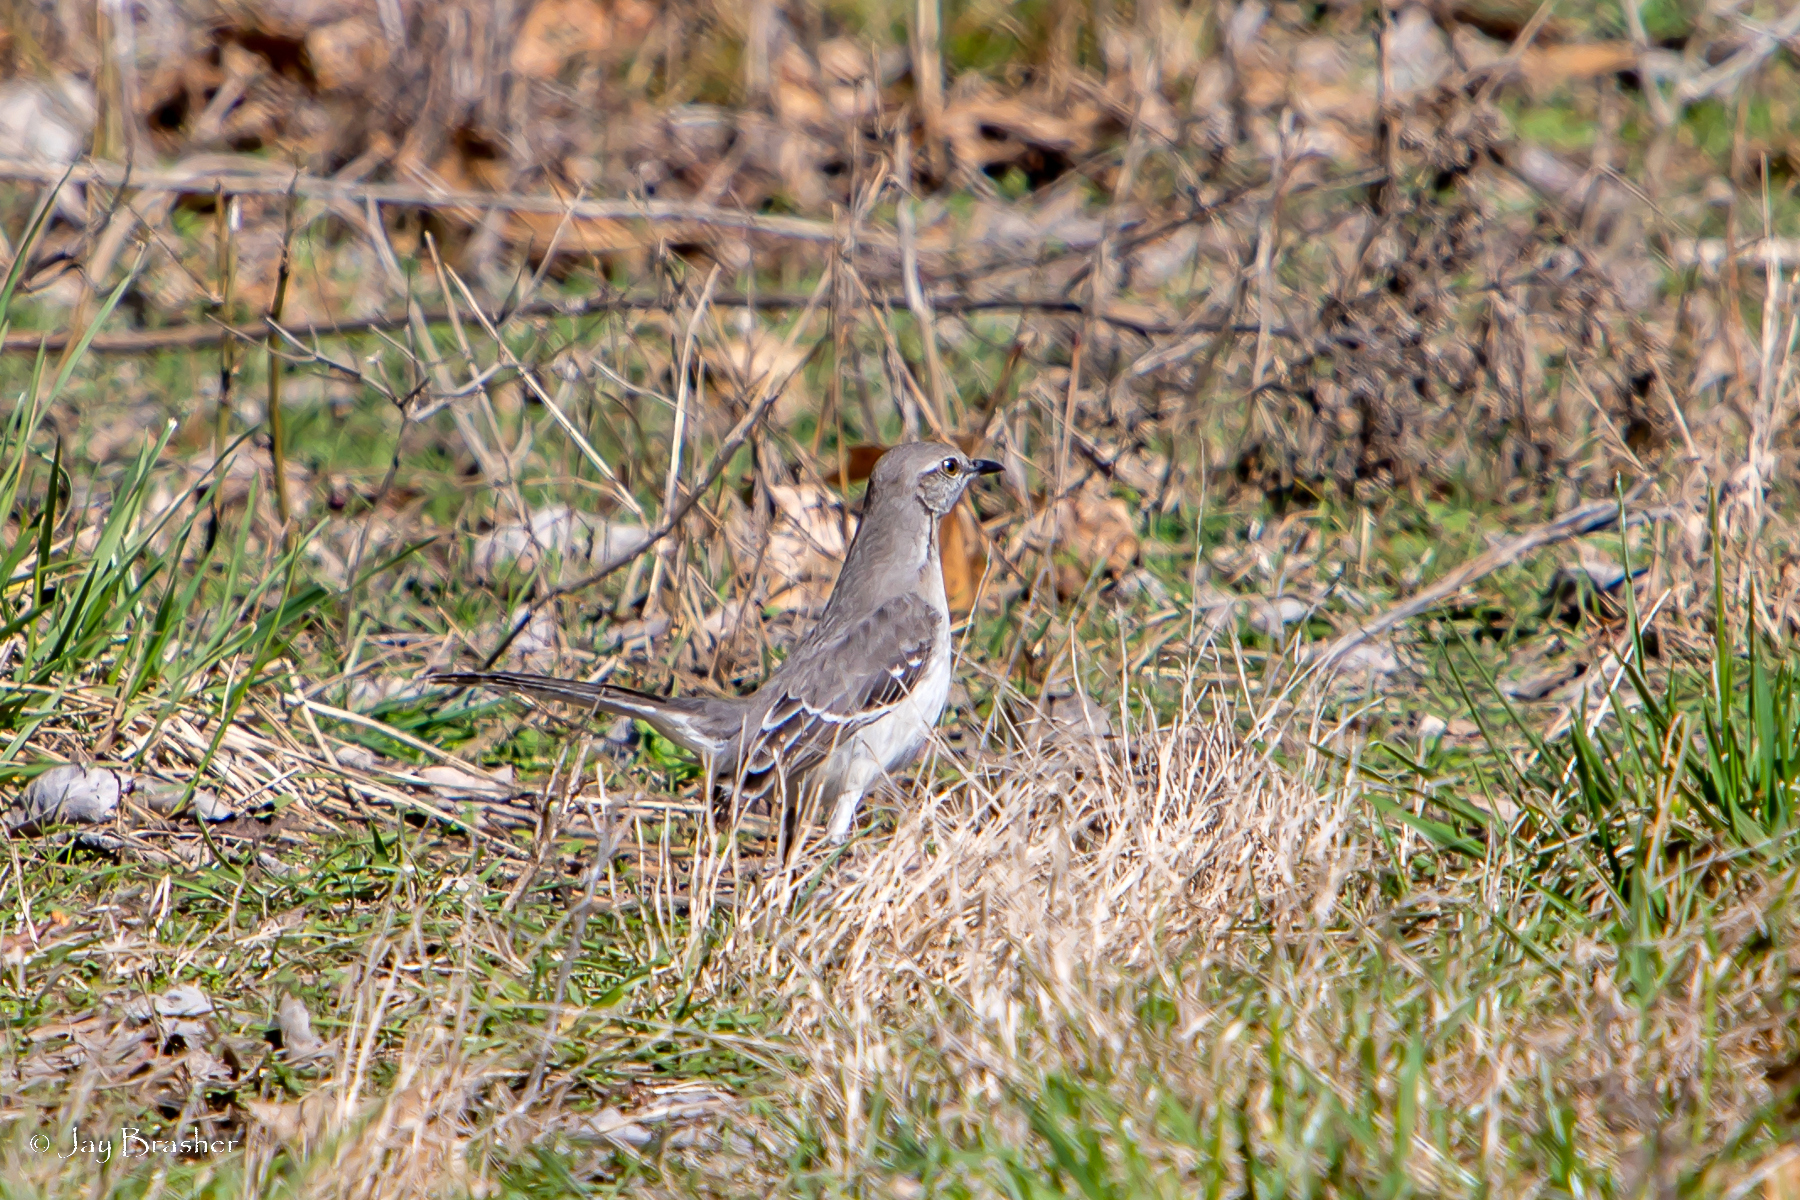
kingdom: Animalia
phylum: Chordata
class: Aves
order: Passeriformes
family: Mimidae
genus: Mimus
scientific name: Mimus polyglottos
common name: Northern mockingbird
